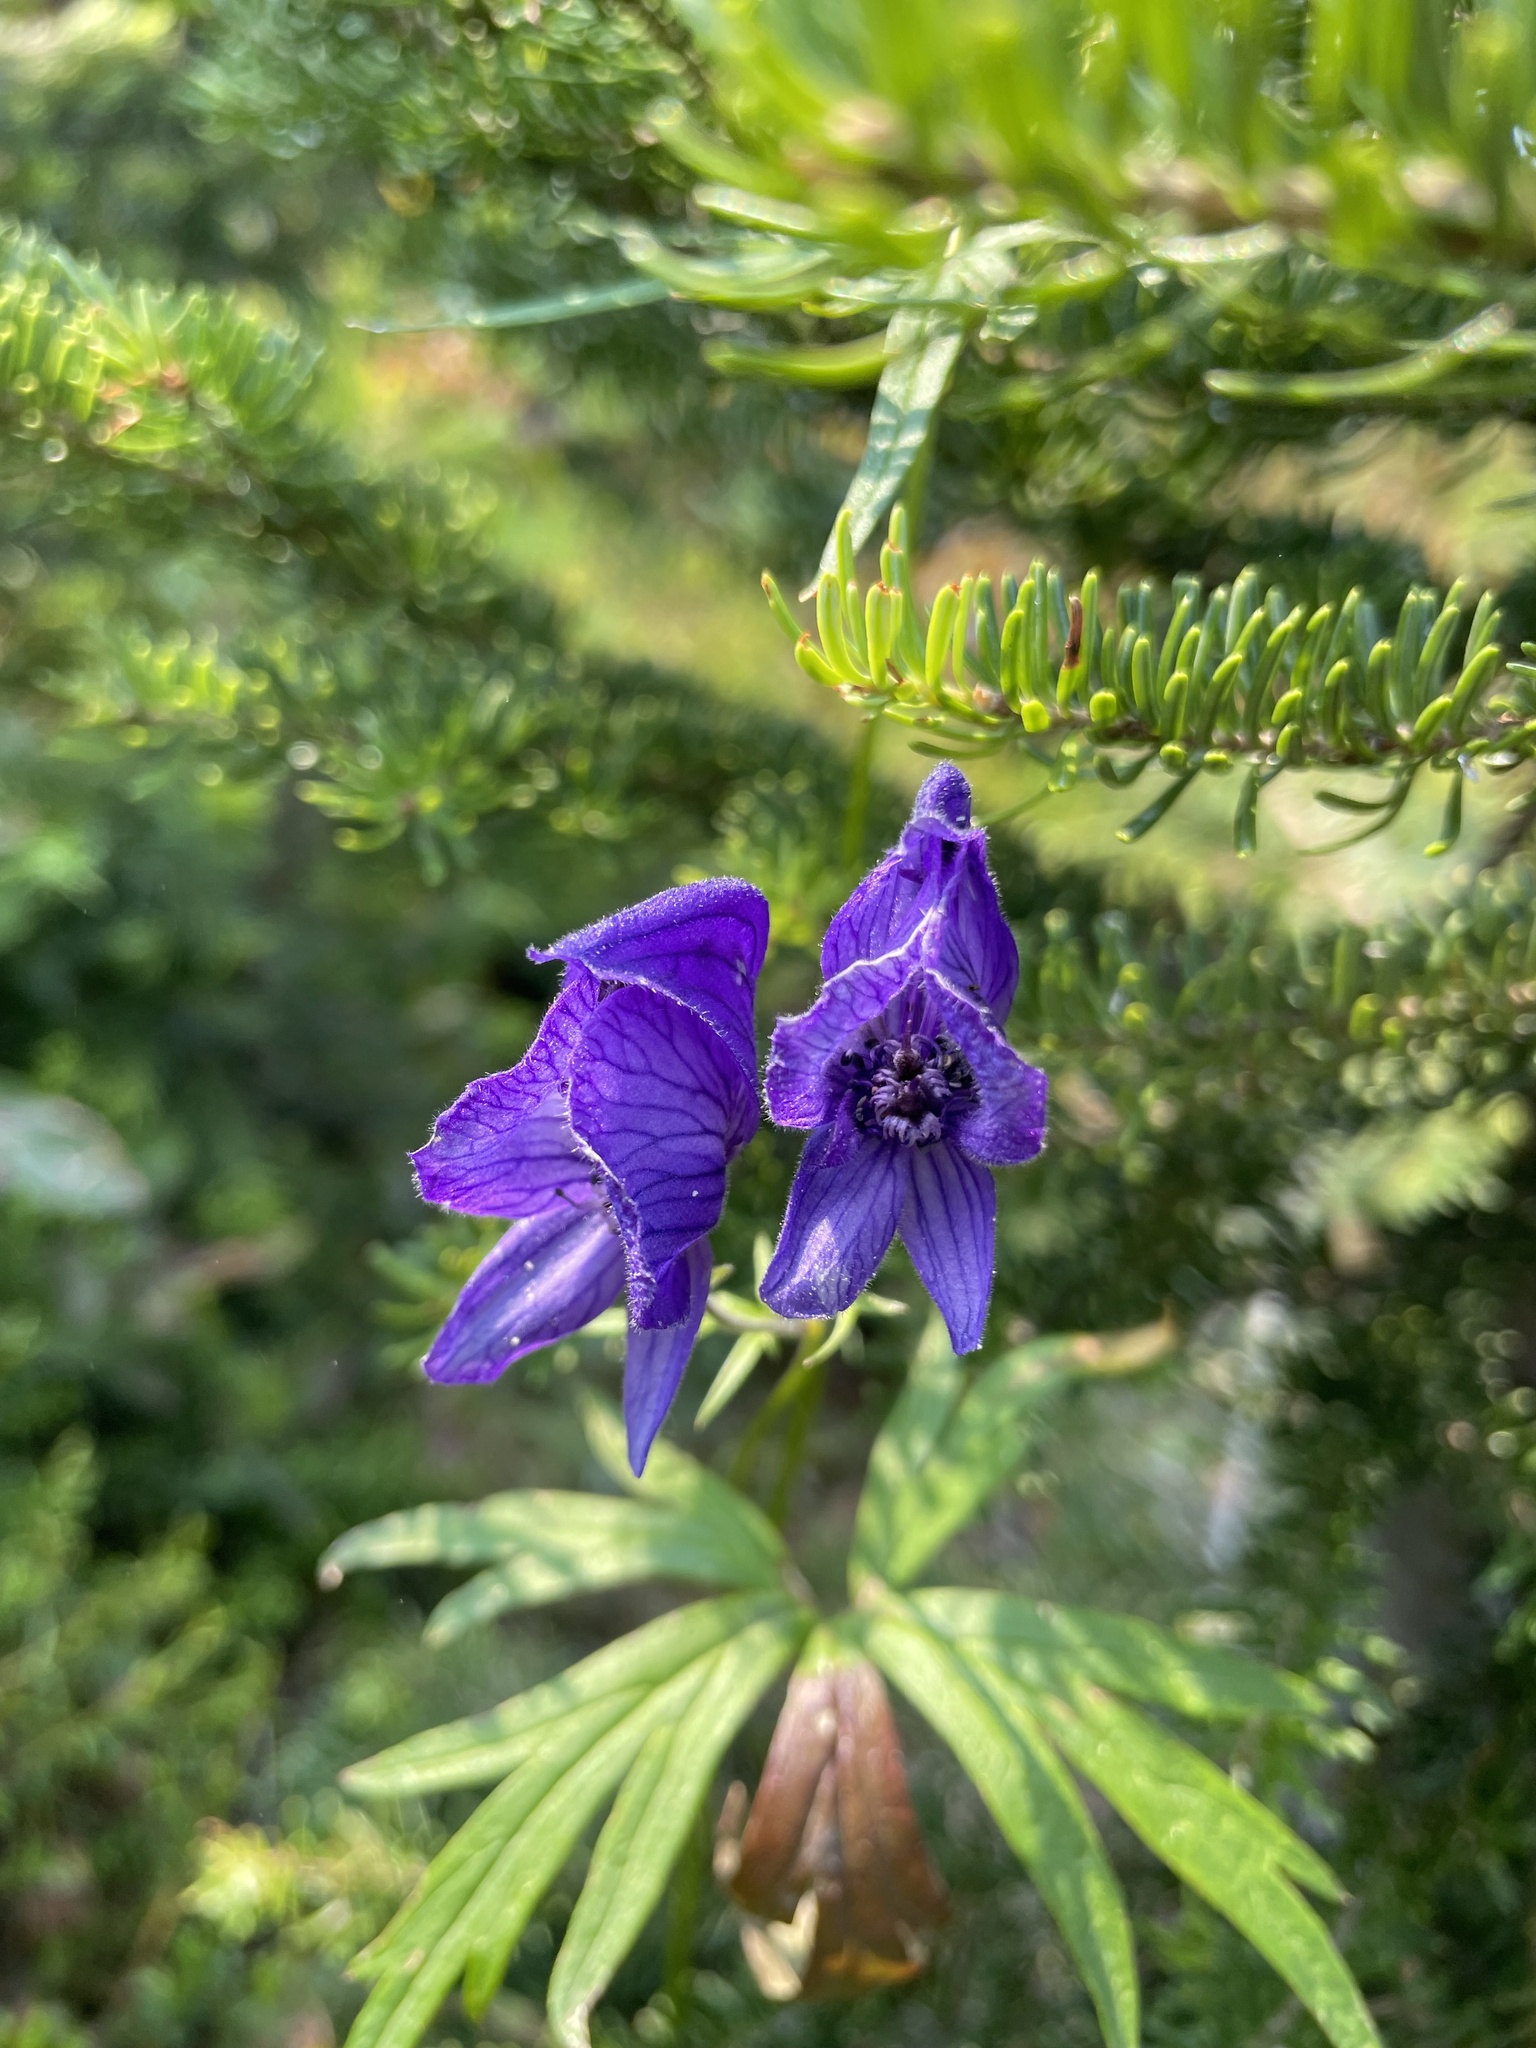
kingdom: Plantae
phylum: Tracheophyta
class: Magnoliopsida
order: Ranunculales
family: Ranunculaceae
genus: Aconitum
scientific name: Aconitum delphiniifolium
